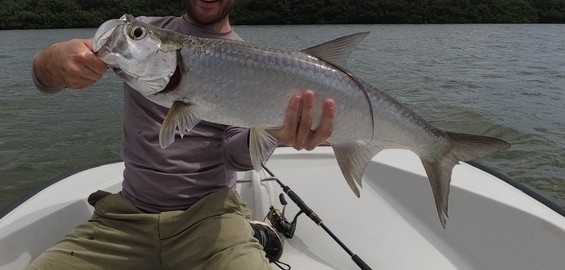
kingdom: Animalia
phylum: Chordata
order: Elopiformes
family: Megalopidae
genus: Megalops
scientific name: Megalops atlanticus
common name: Tarpon
